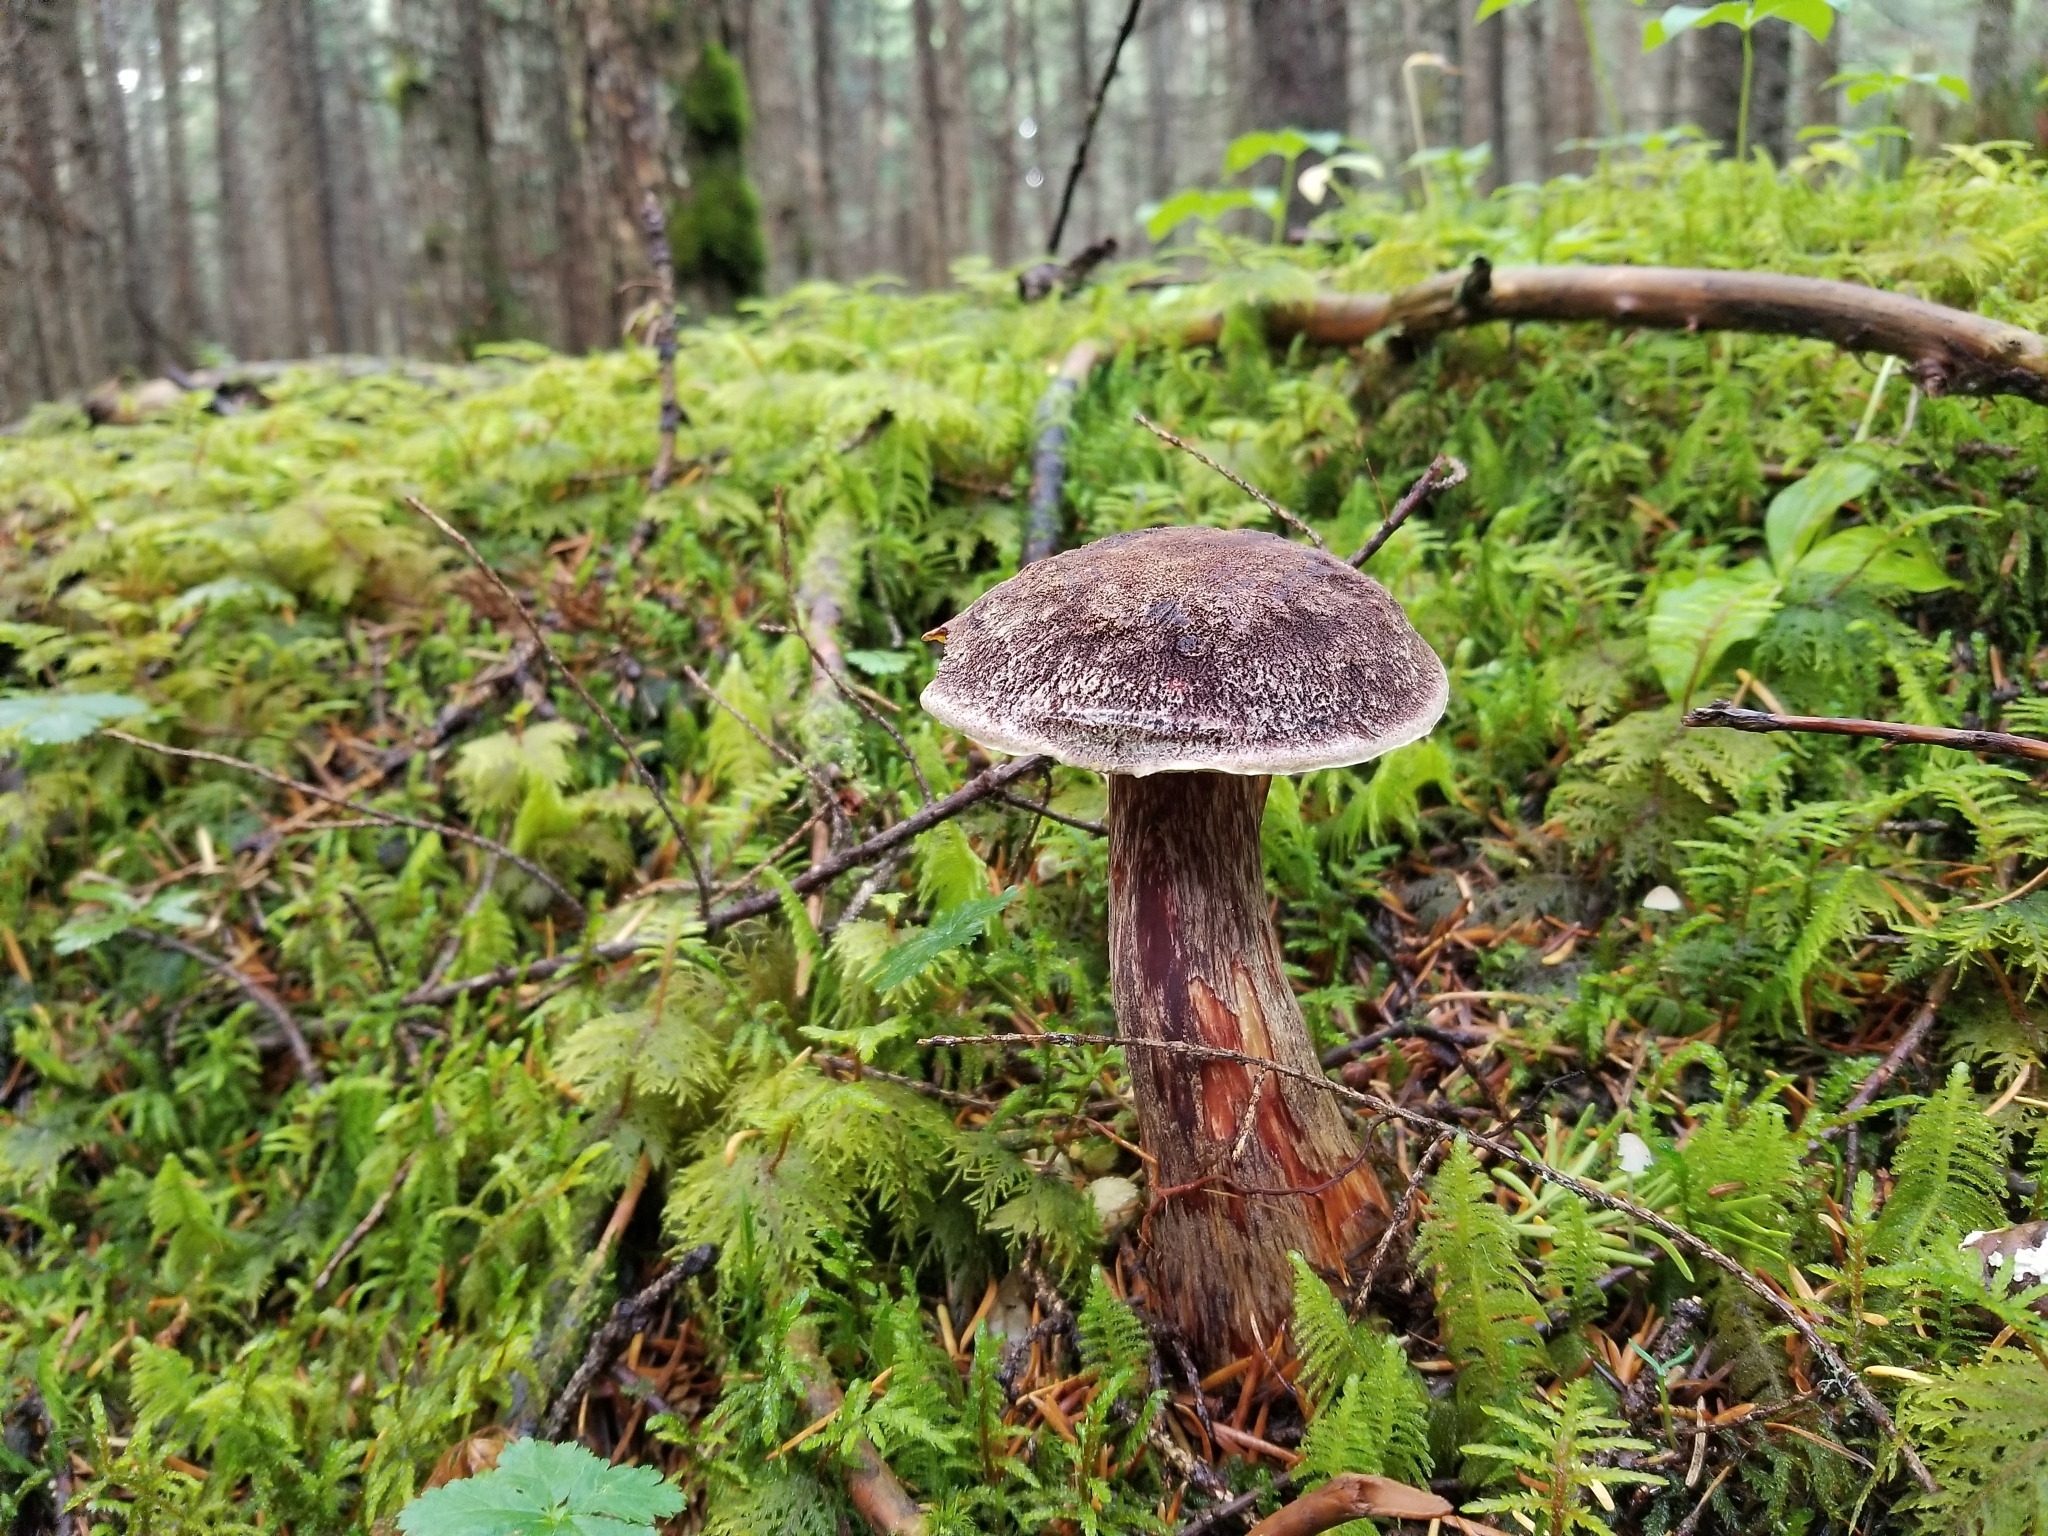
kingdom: Fungi
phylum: Basidiomycota
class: Agaricomycetes
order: Boletales
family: Boletaceae
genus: Aureoboletus
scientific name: Aureoboletus mirabilis
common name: Admirable bolete
